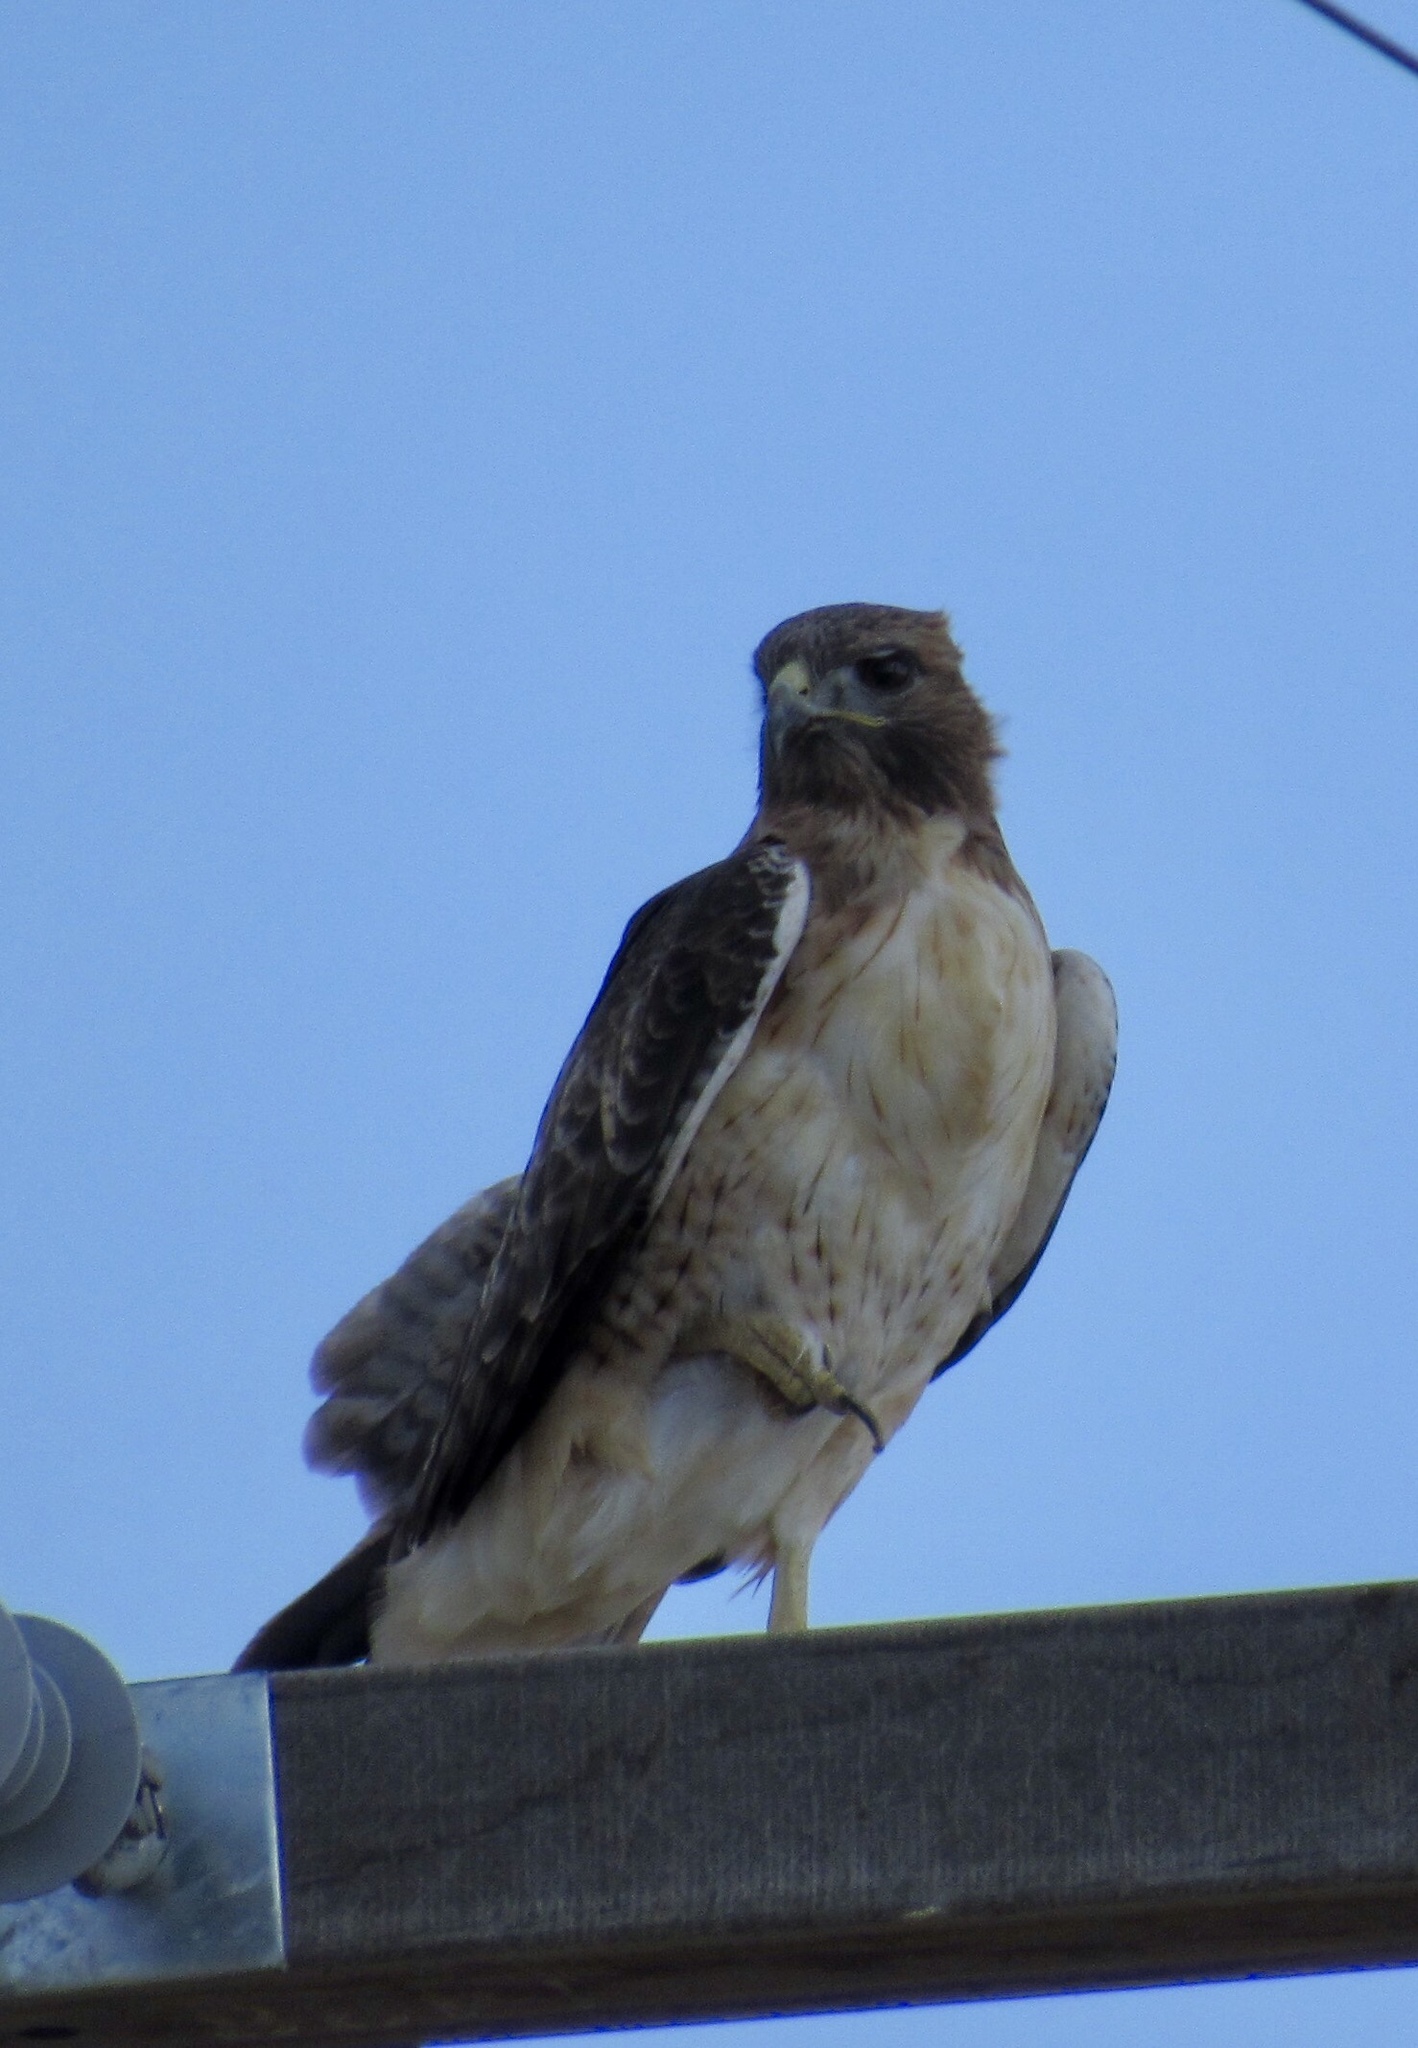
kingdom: Animalia
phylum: Chordata
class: Aves
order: Accipitriformes
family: Accipitridae
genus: Buteo
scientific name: Buteo jamaicensis
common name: Red-tailed hawk
